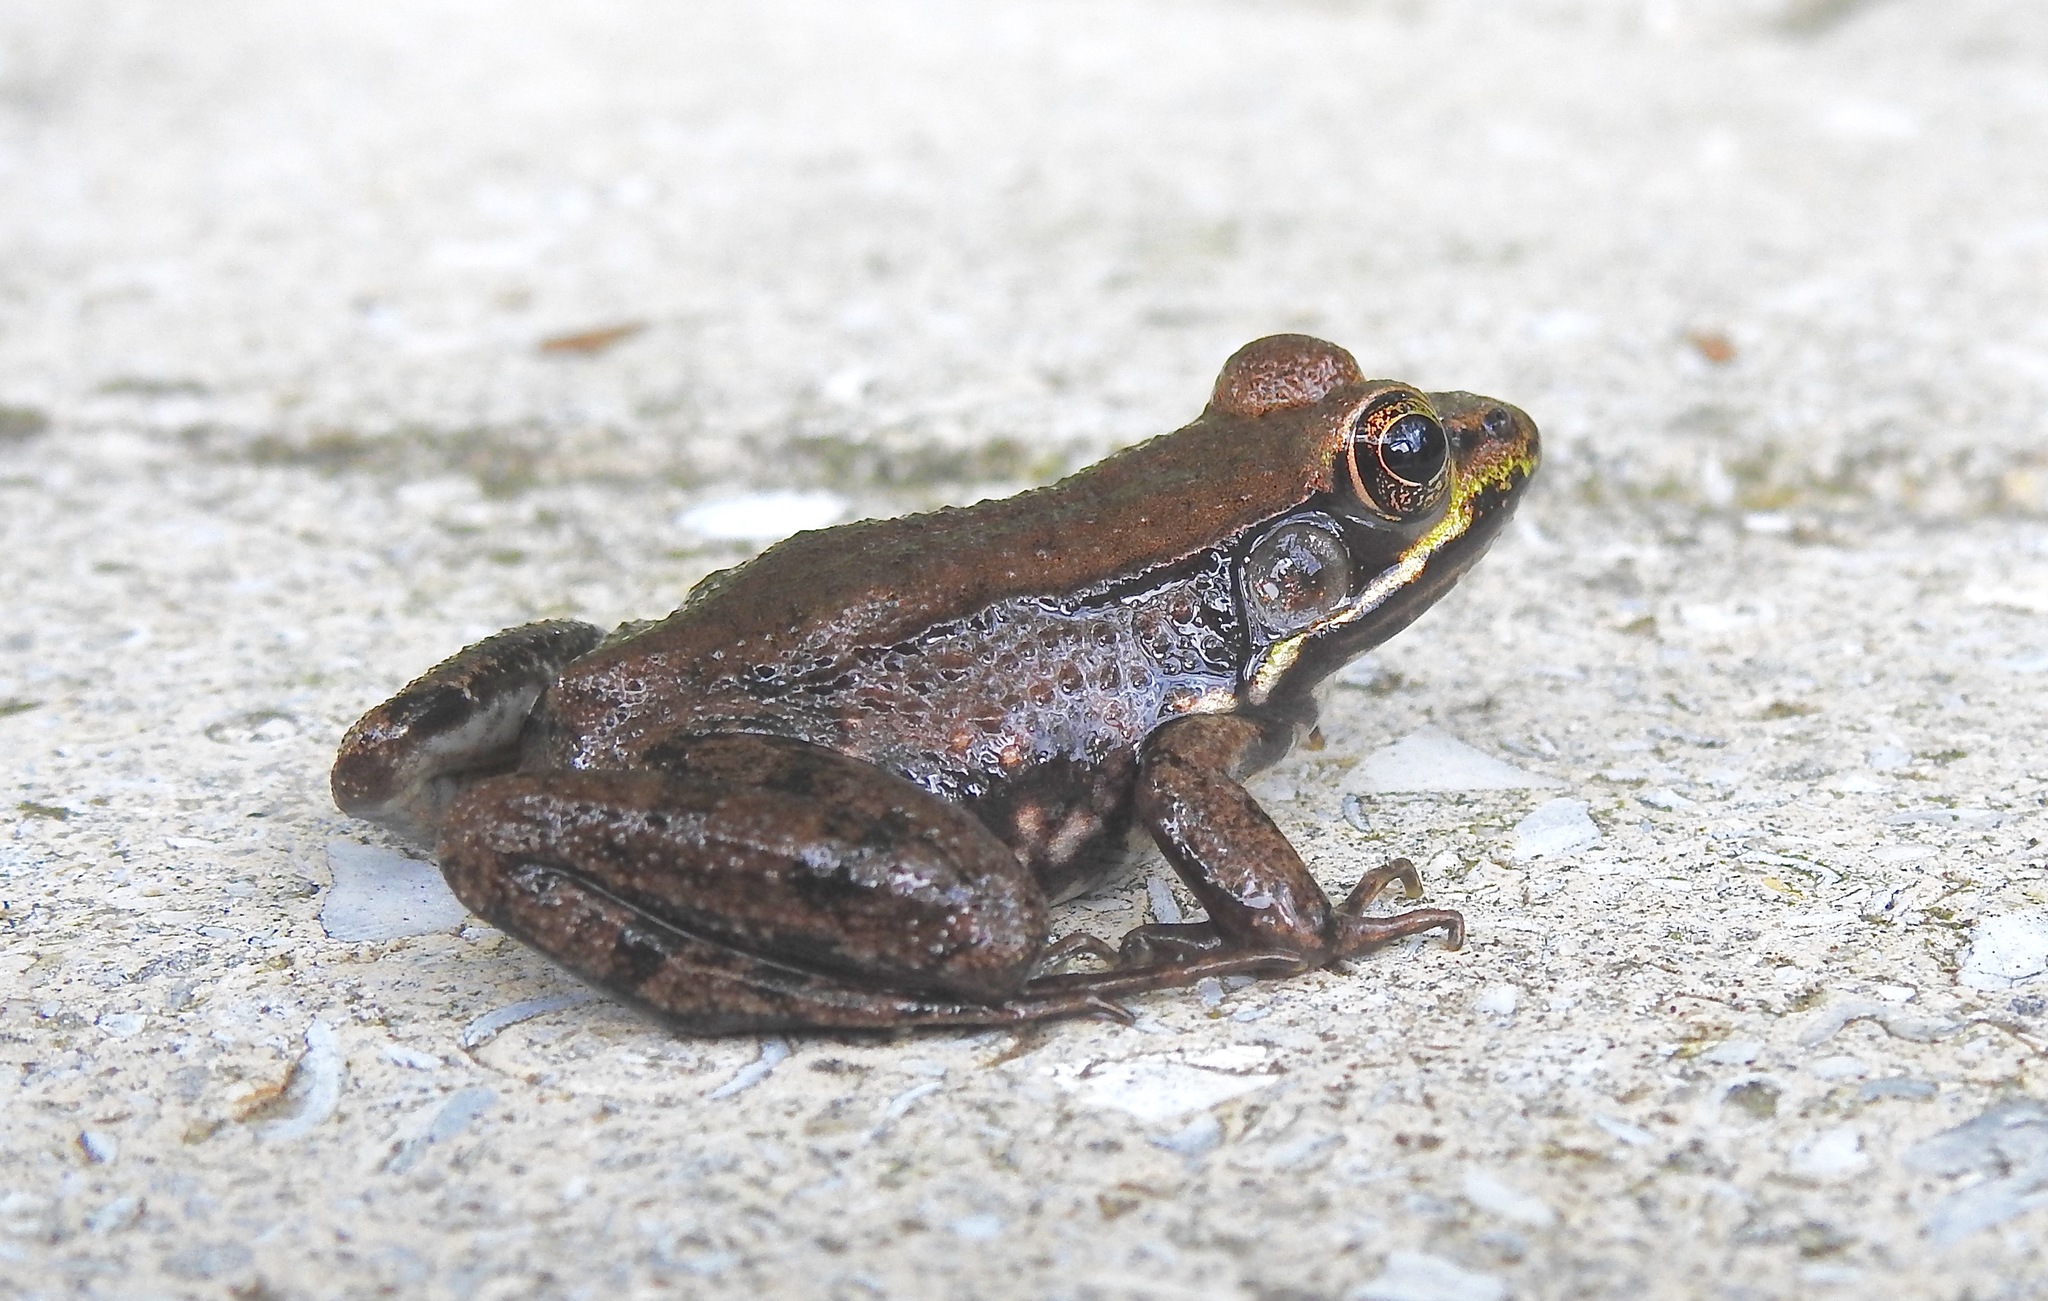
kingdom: Animalia
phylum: Chordata
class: Amphibia
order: Anura
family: Ranidae
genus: Lithobates
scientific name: Lithobates clamitans
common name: Green frog
